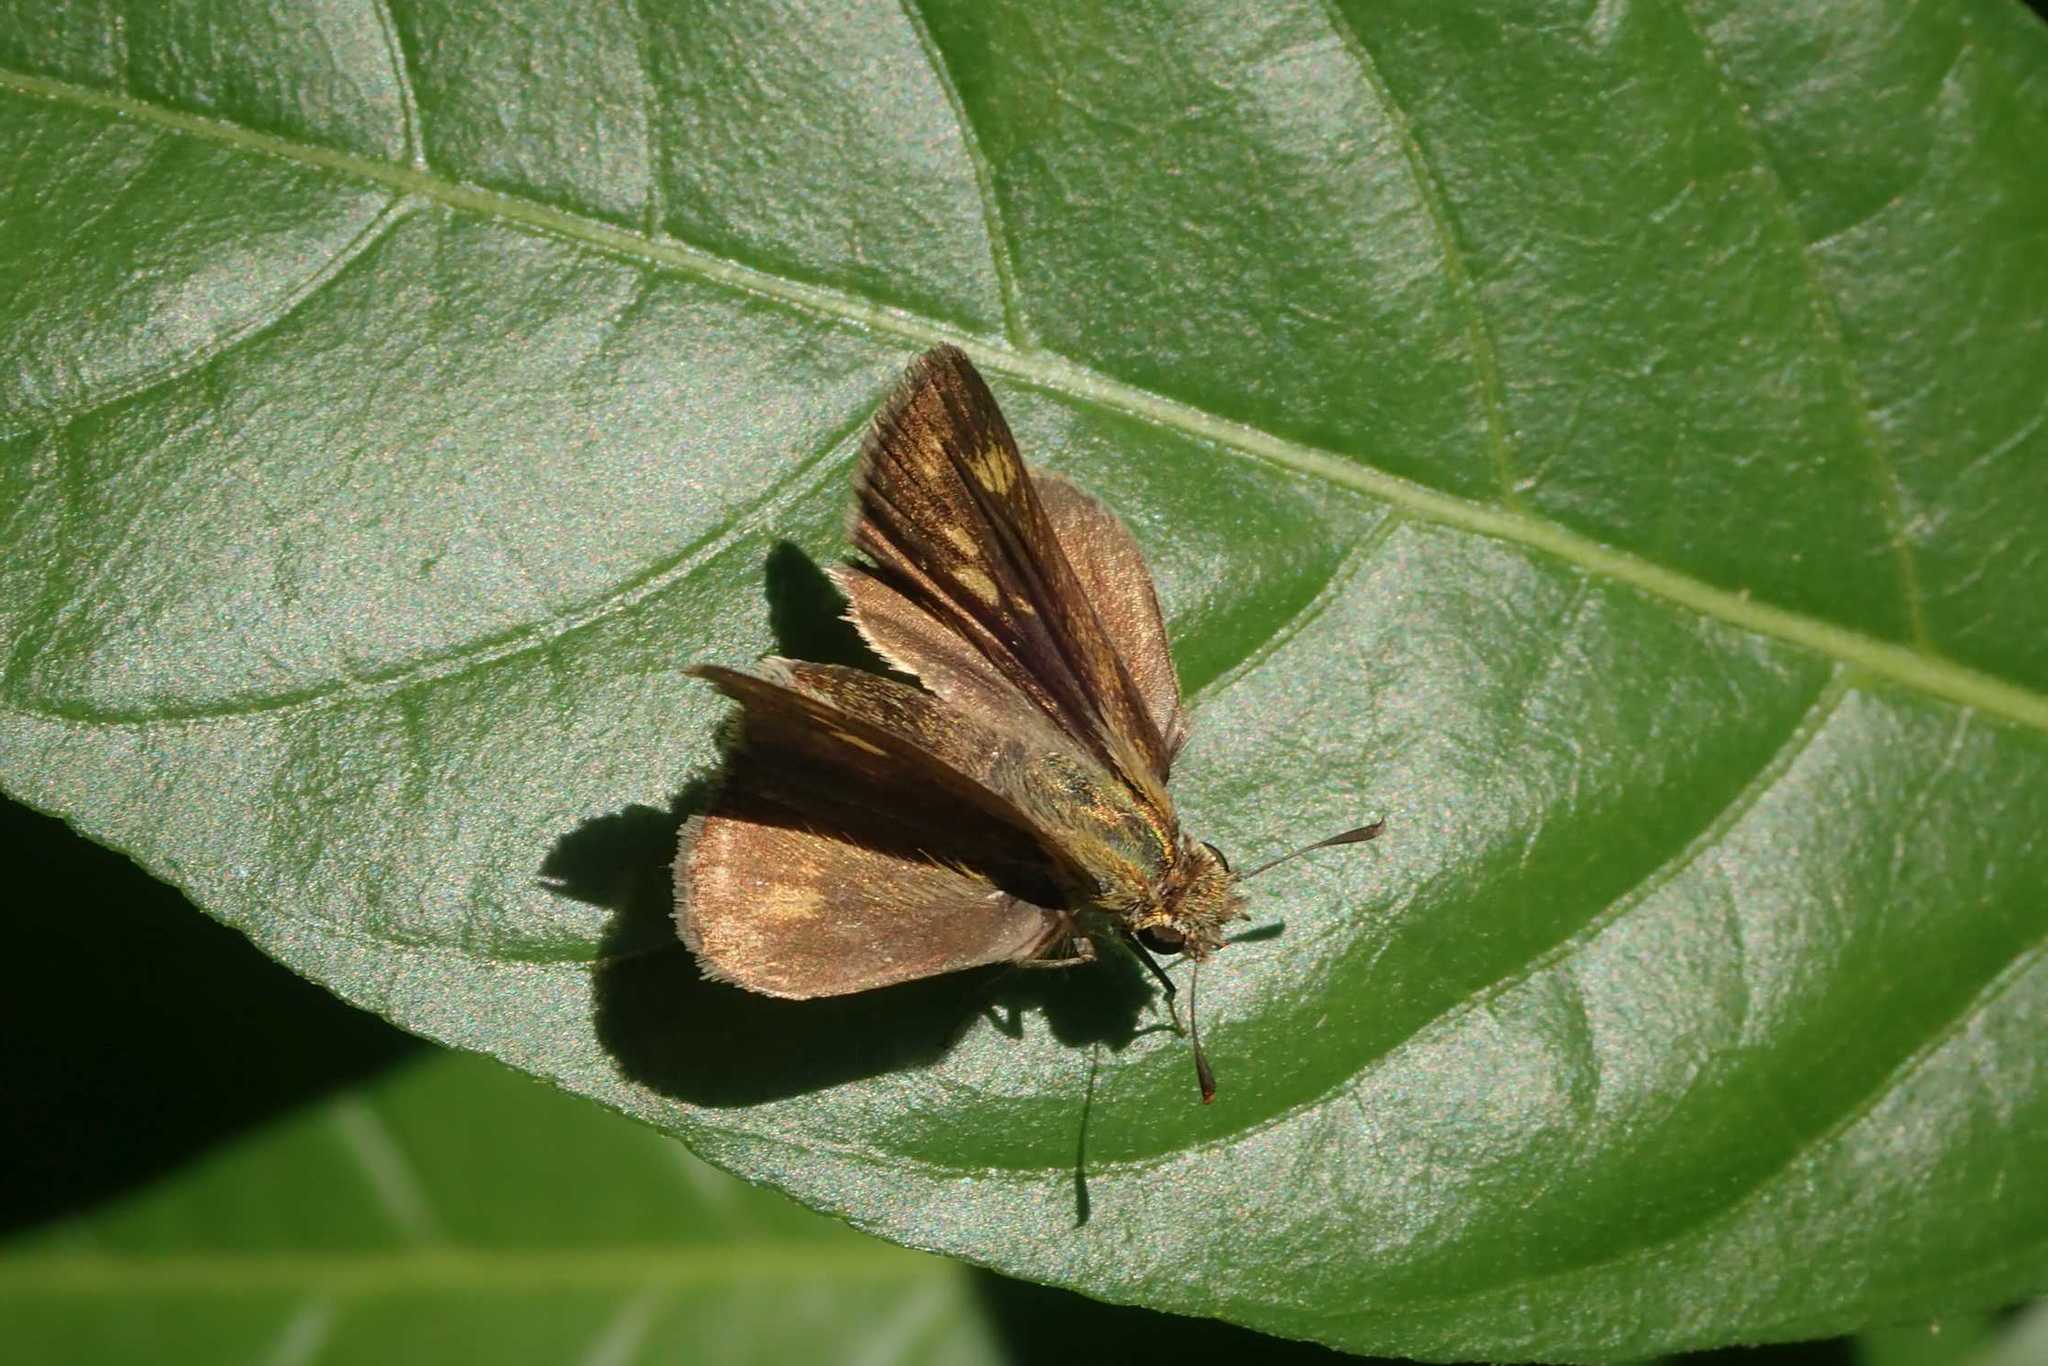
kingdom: Animalia
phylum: Arthropoda
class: Insecta
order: Hymenoptera
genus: Afrogenes
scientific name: Afrogenes
